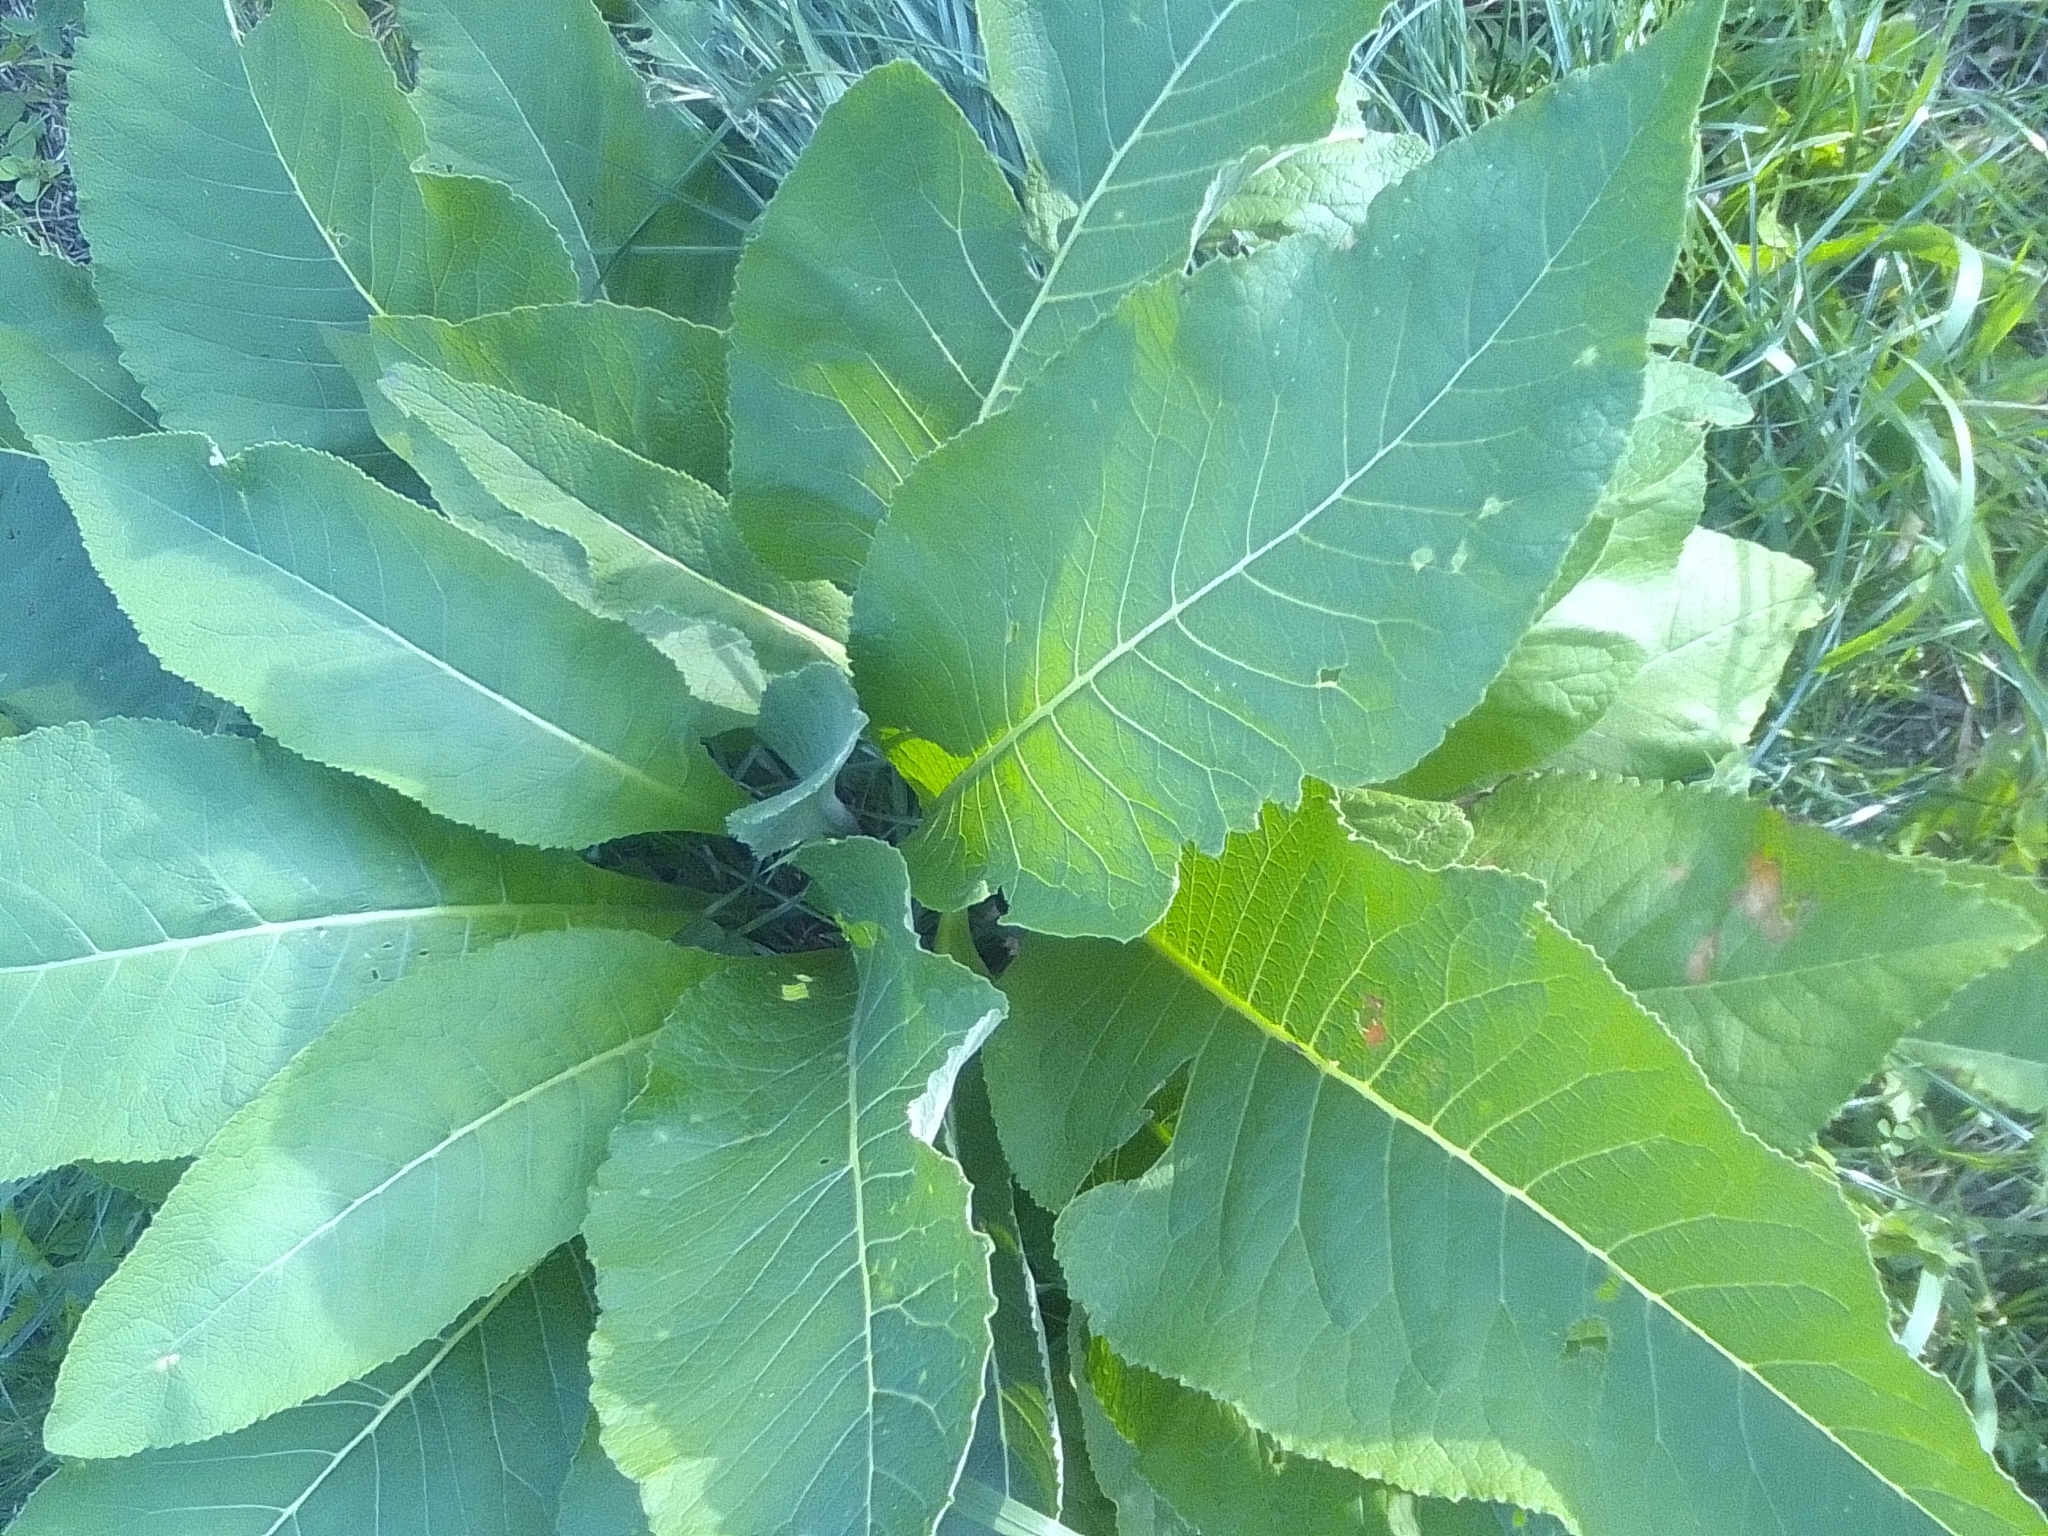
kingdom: Plantae
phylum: Tracheophyta
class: Magnoliopsida
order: Asterales
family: Asteraceae
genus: Inula
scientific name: Inula helenium
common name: Elecampane
